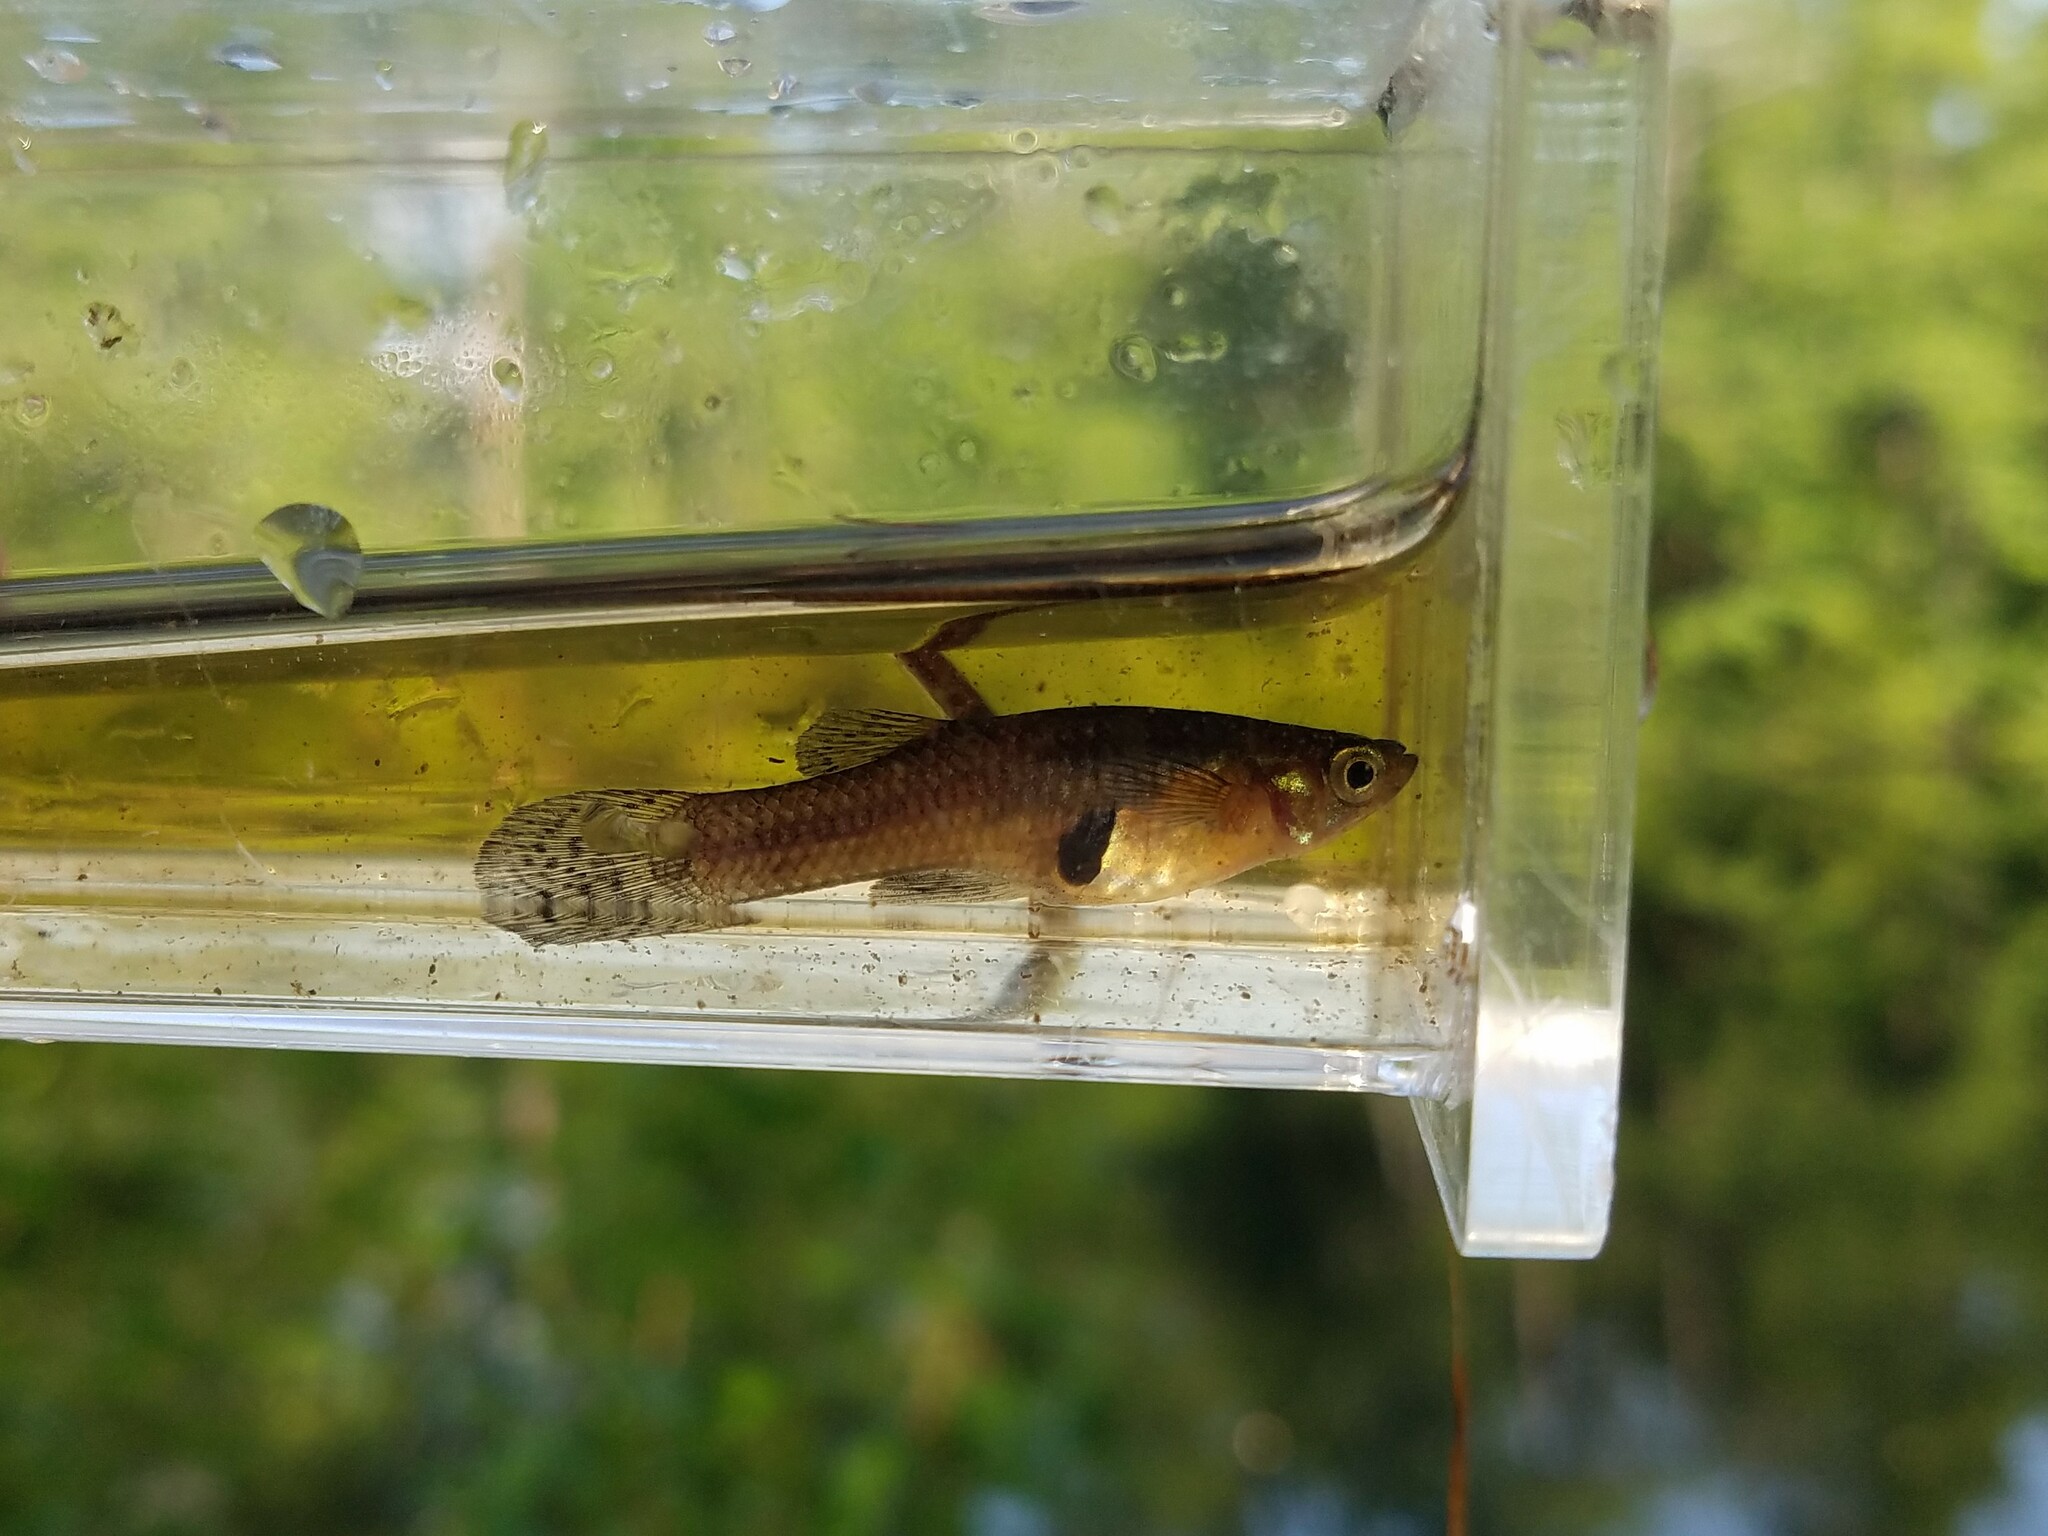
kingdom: Animalia
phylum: Chordata
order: Cyprinodontiformes
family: Poeciliidae
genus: Gambusia
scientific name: Gambusia holbrooki
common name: Eastern mosquitofish
